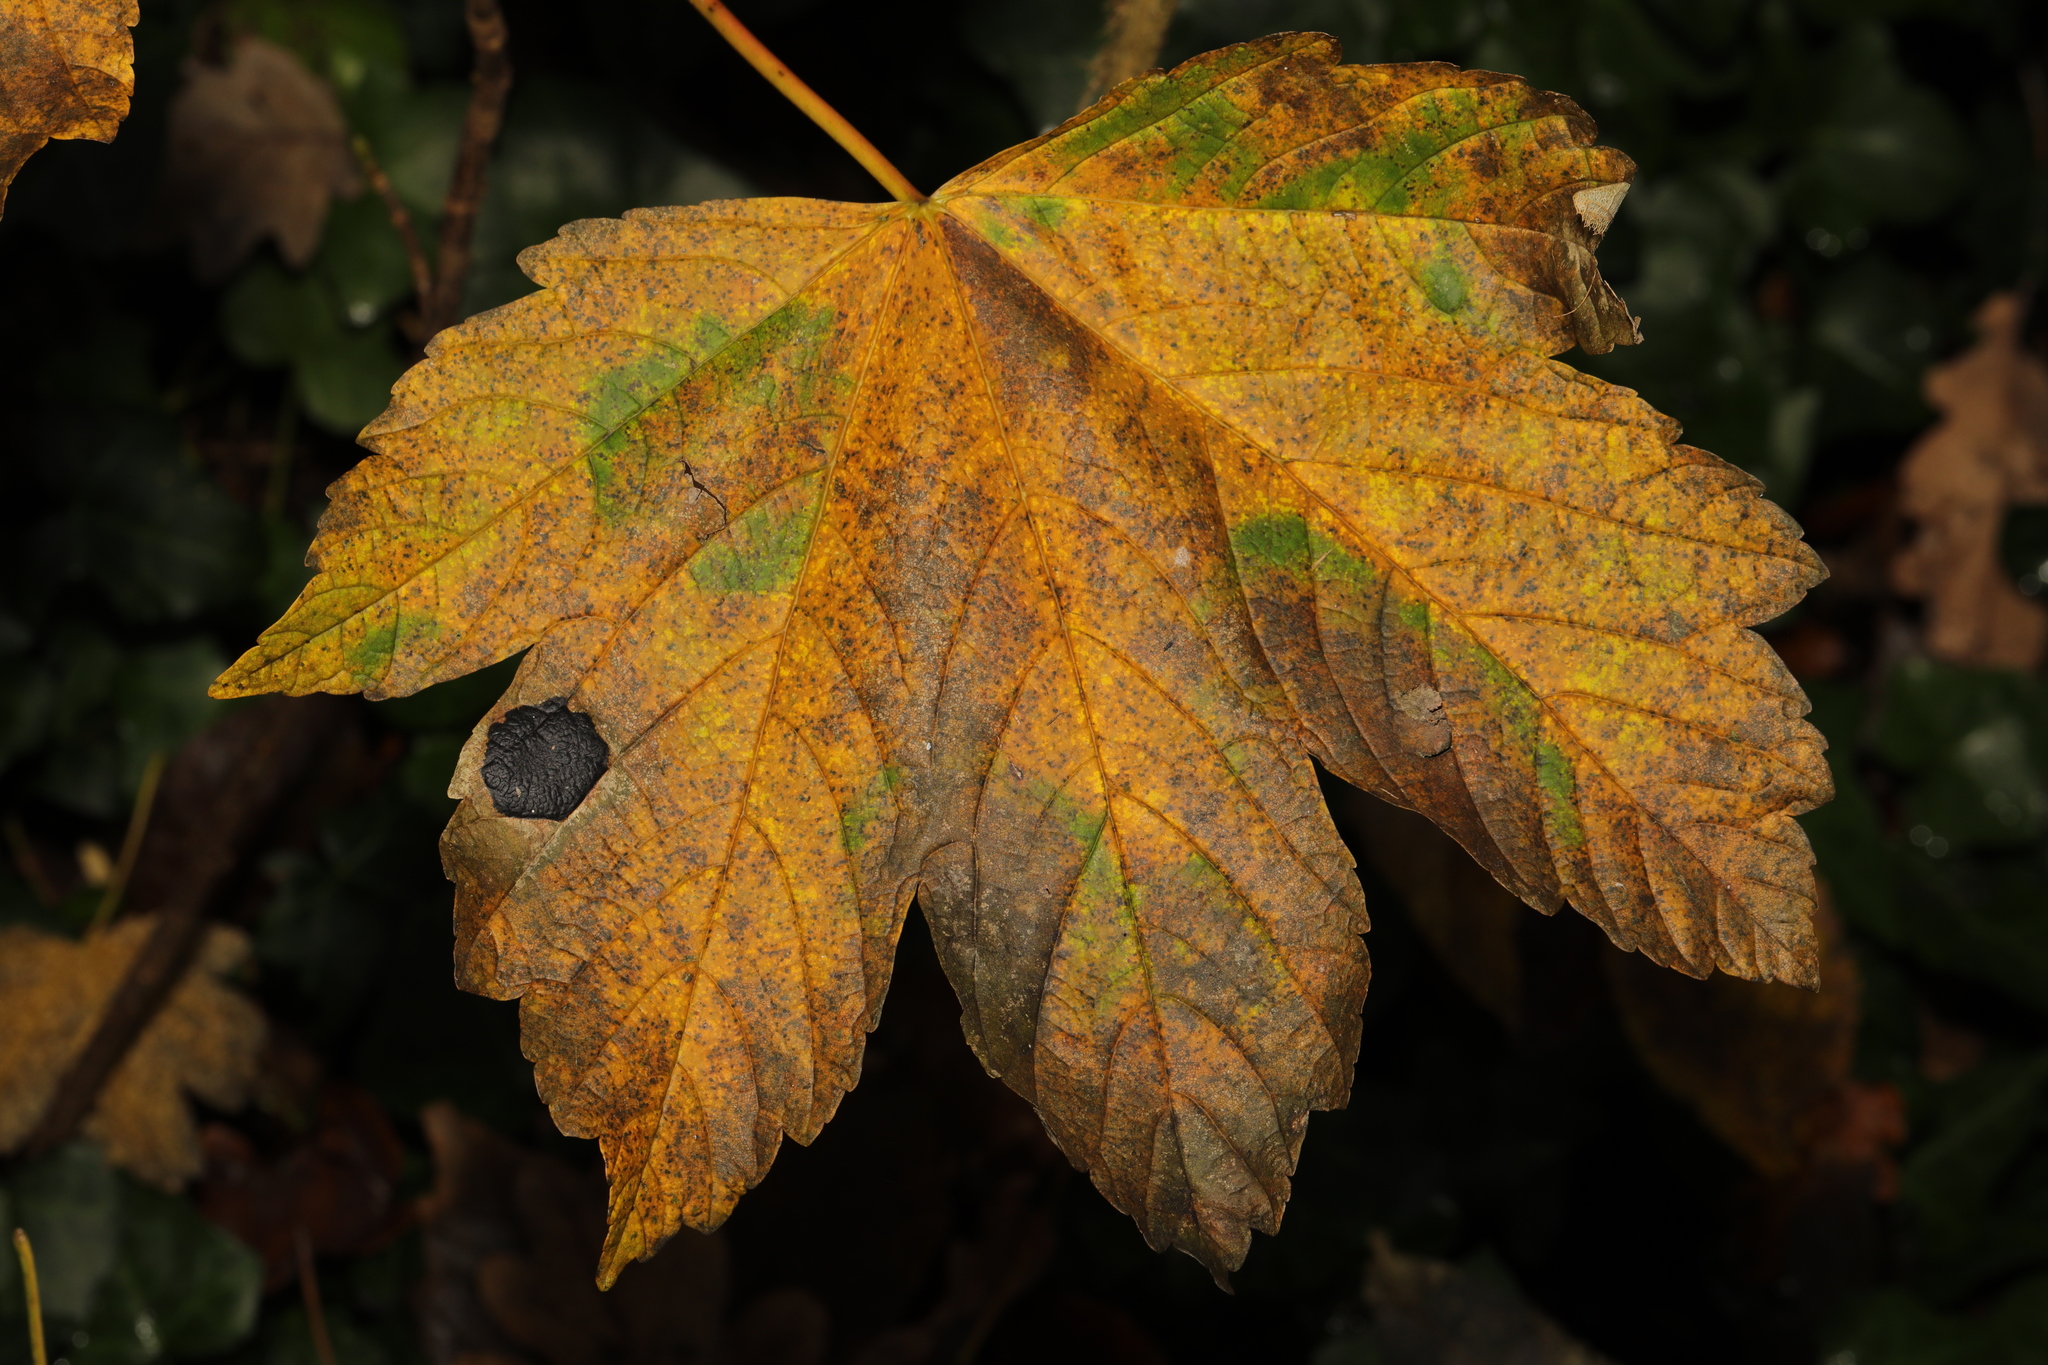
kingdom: Fungi
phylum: Ascomycota
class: Leotiomycetes
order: Rhytismatales
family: Rhytismataceae
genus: Rhytisma
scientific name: Rhytisma acerinum
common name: European tar spot
